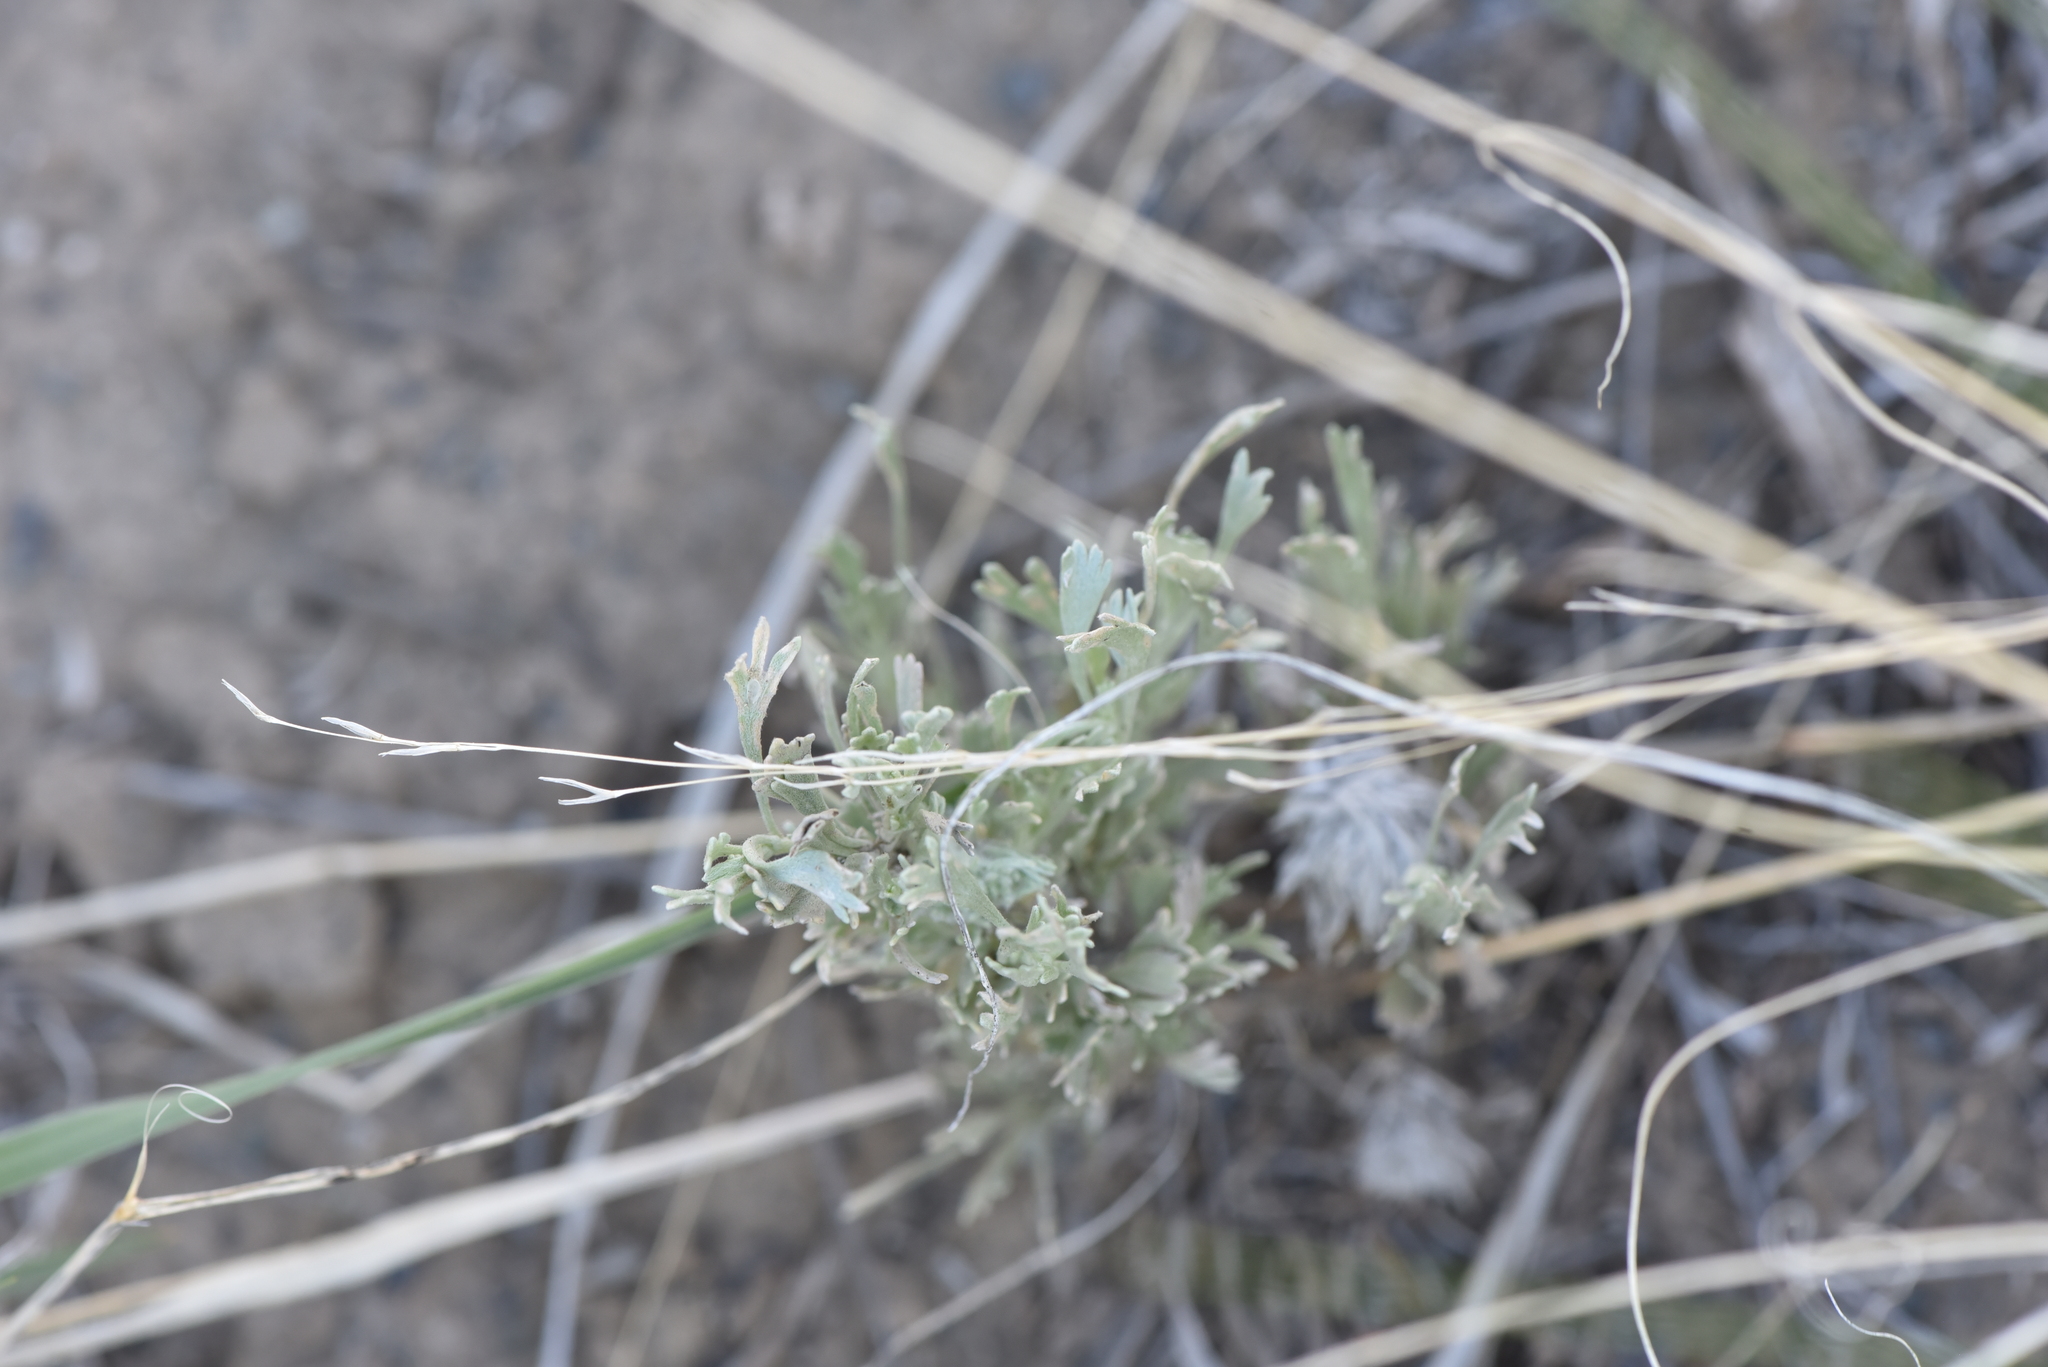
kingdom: Plantae
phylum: Tracheophyta
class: Magnoliopsida
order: Asterales
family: Asteraceae
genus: Artemisia
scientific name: Artemisia tridentata
